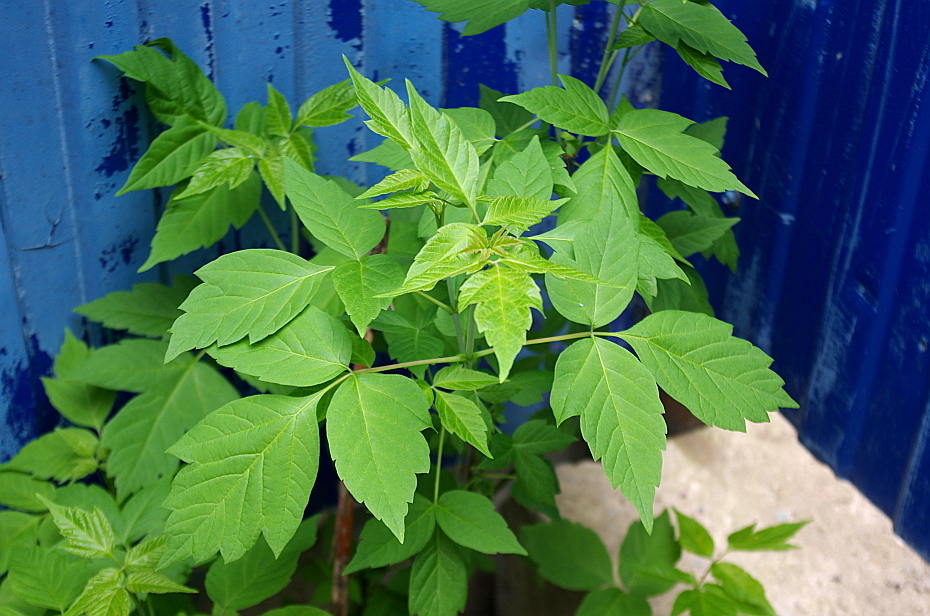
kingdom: Plantae
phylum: Tracheophyta
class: Magnoliopsida
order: Sapindales
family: Sapindaceae
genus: Acer
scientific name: Acer negundo
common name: Ashleaf maple
